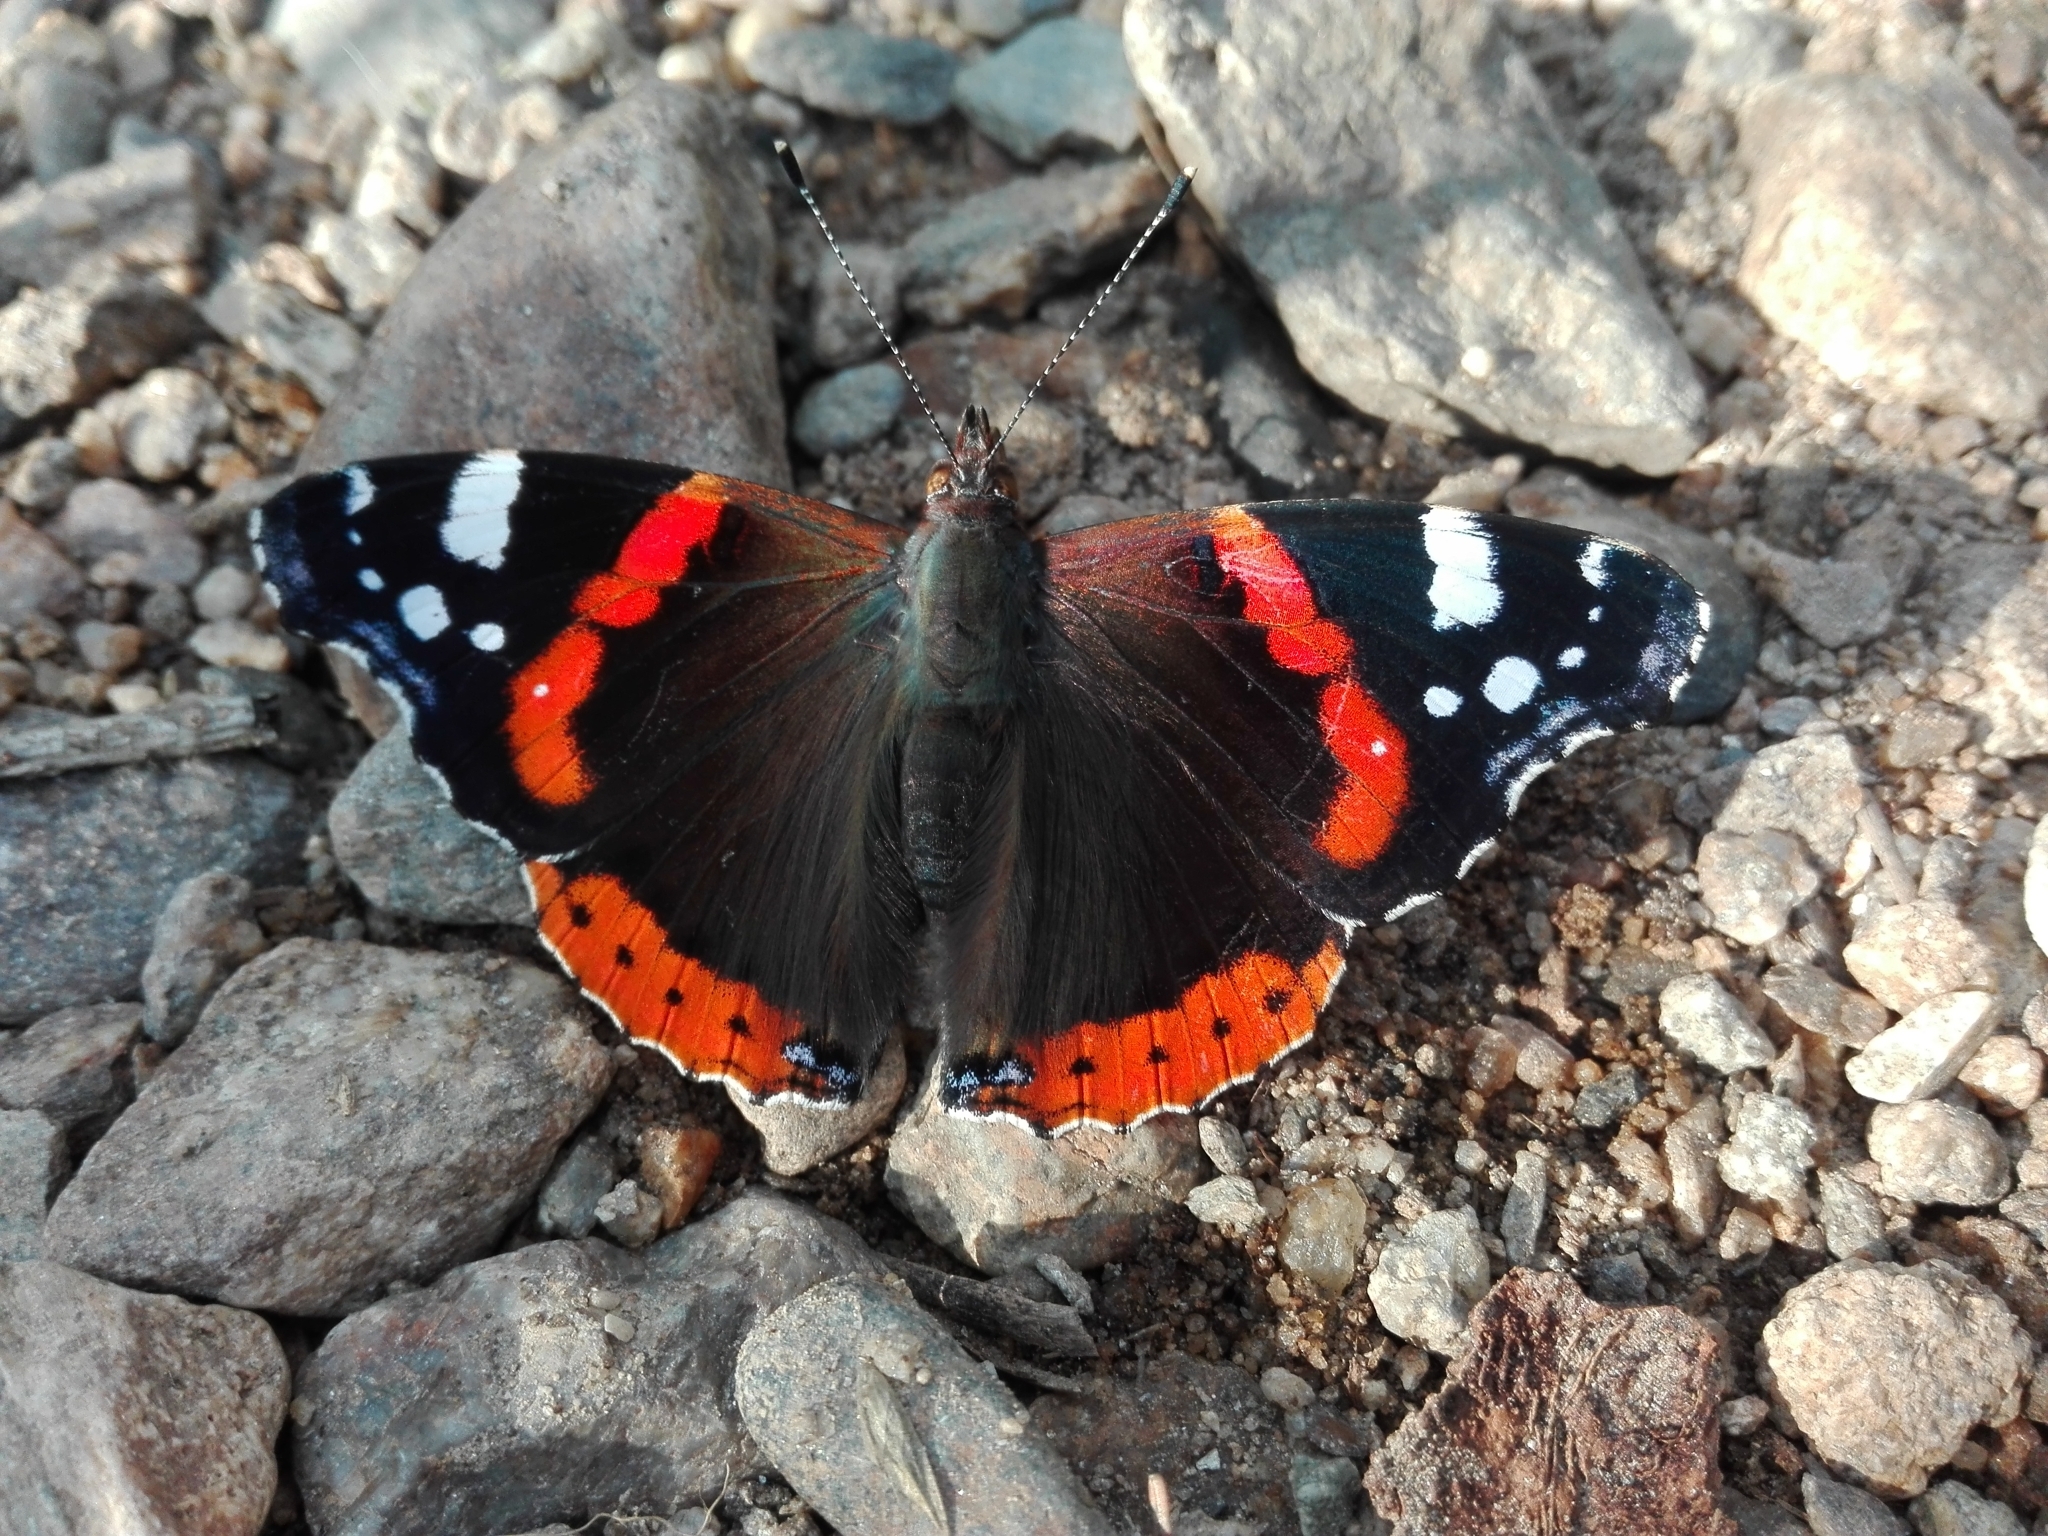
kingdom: Animalia
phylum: Arthropoda
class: Insecta
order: Lepidoptera
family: Nymphalidae
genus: Vanessa
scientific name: Vanessa atalanta
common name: Red admiral
